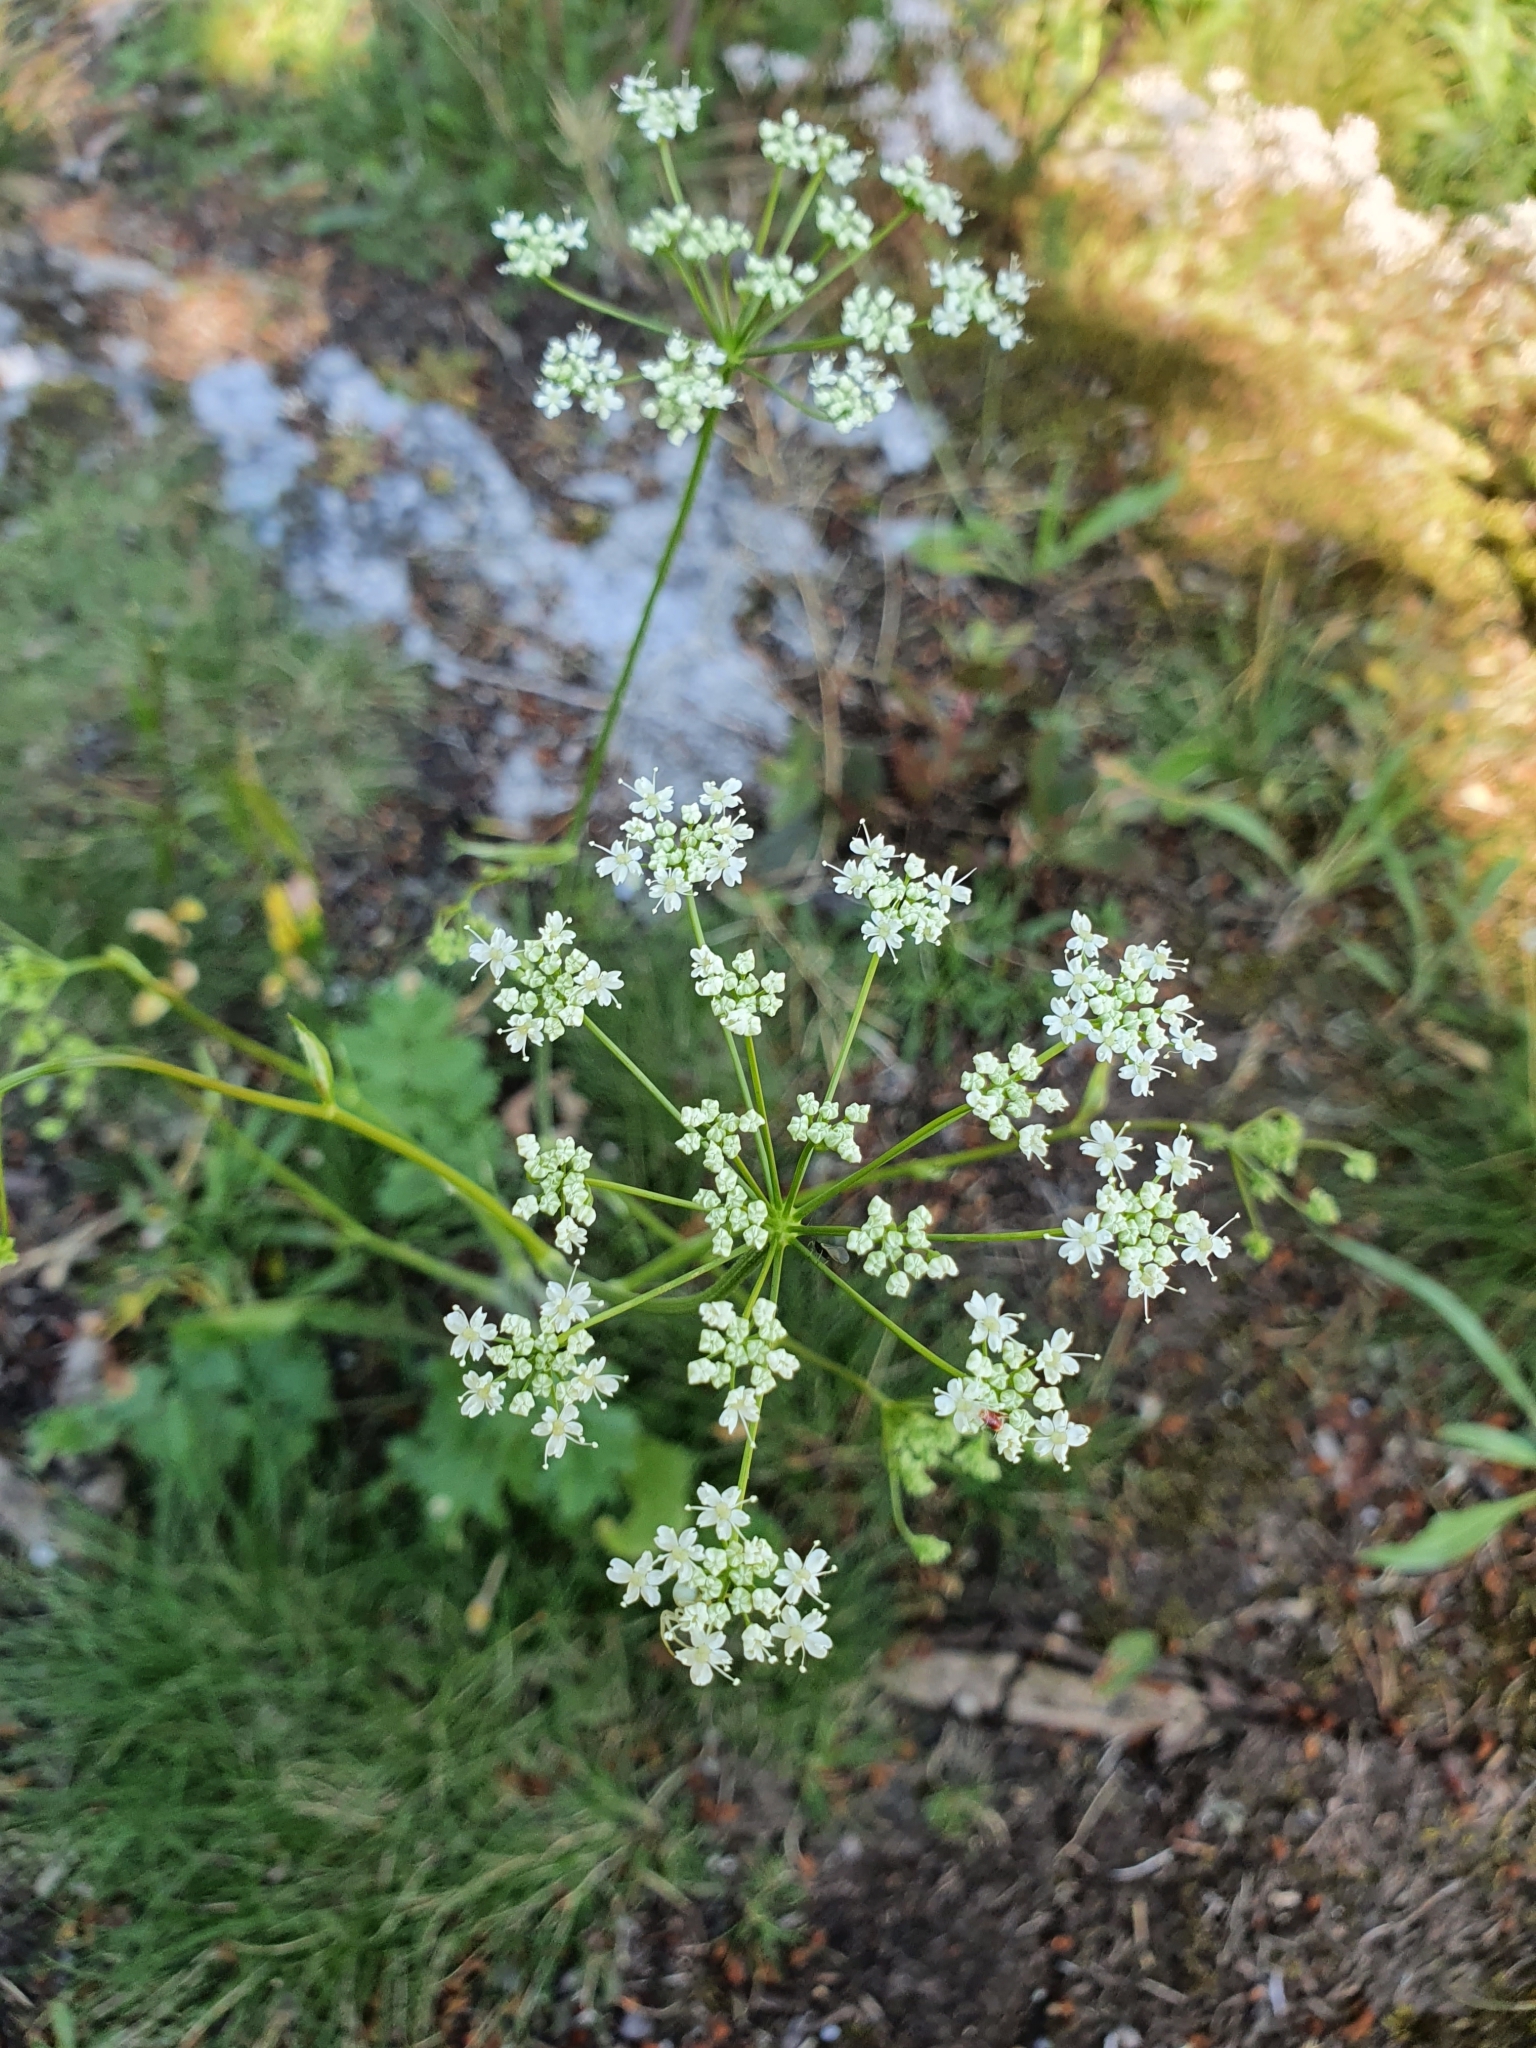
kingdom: Plantae
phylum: Tracheophyta
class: Magnoliopsida
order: Apiales
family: Apiaceae
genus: Pimpinella
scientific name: Pimpinella saxifraga
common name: Burnet-saxifrage
